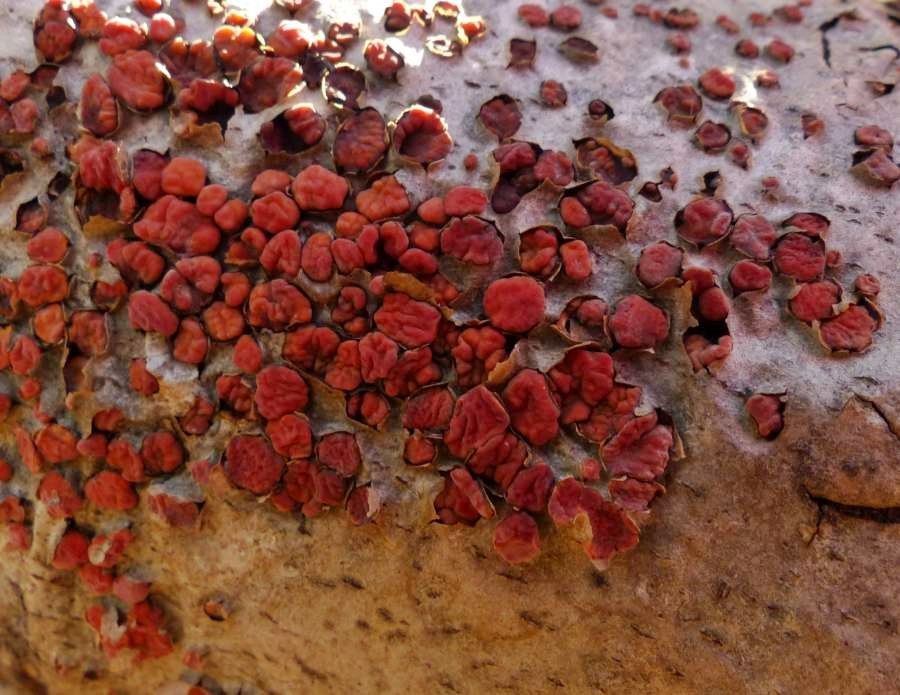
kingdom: Fungi
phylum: Basidiomycota
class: Agaricomycetes
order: Russulales
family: Peniophoraceae
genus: Peniophora
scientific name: Peniophora rufa
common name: Red tree brain fungus
